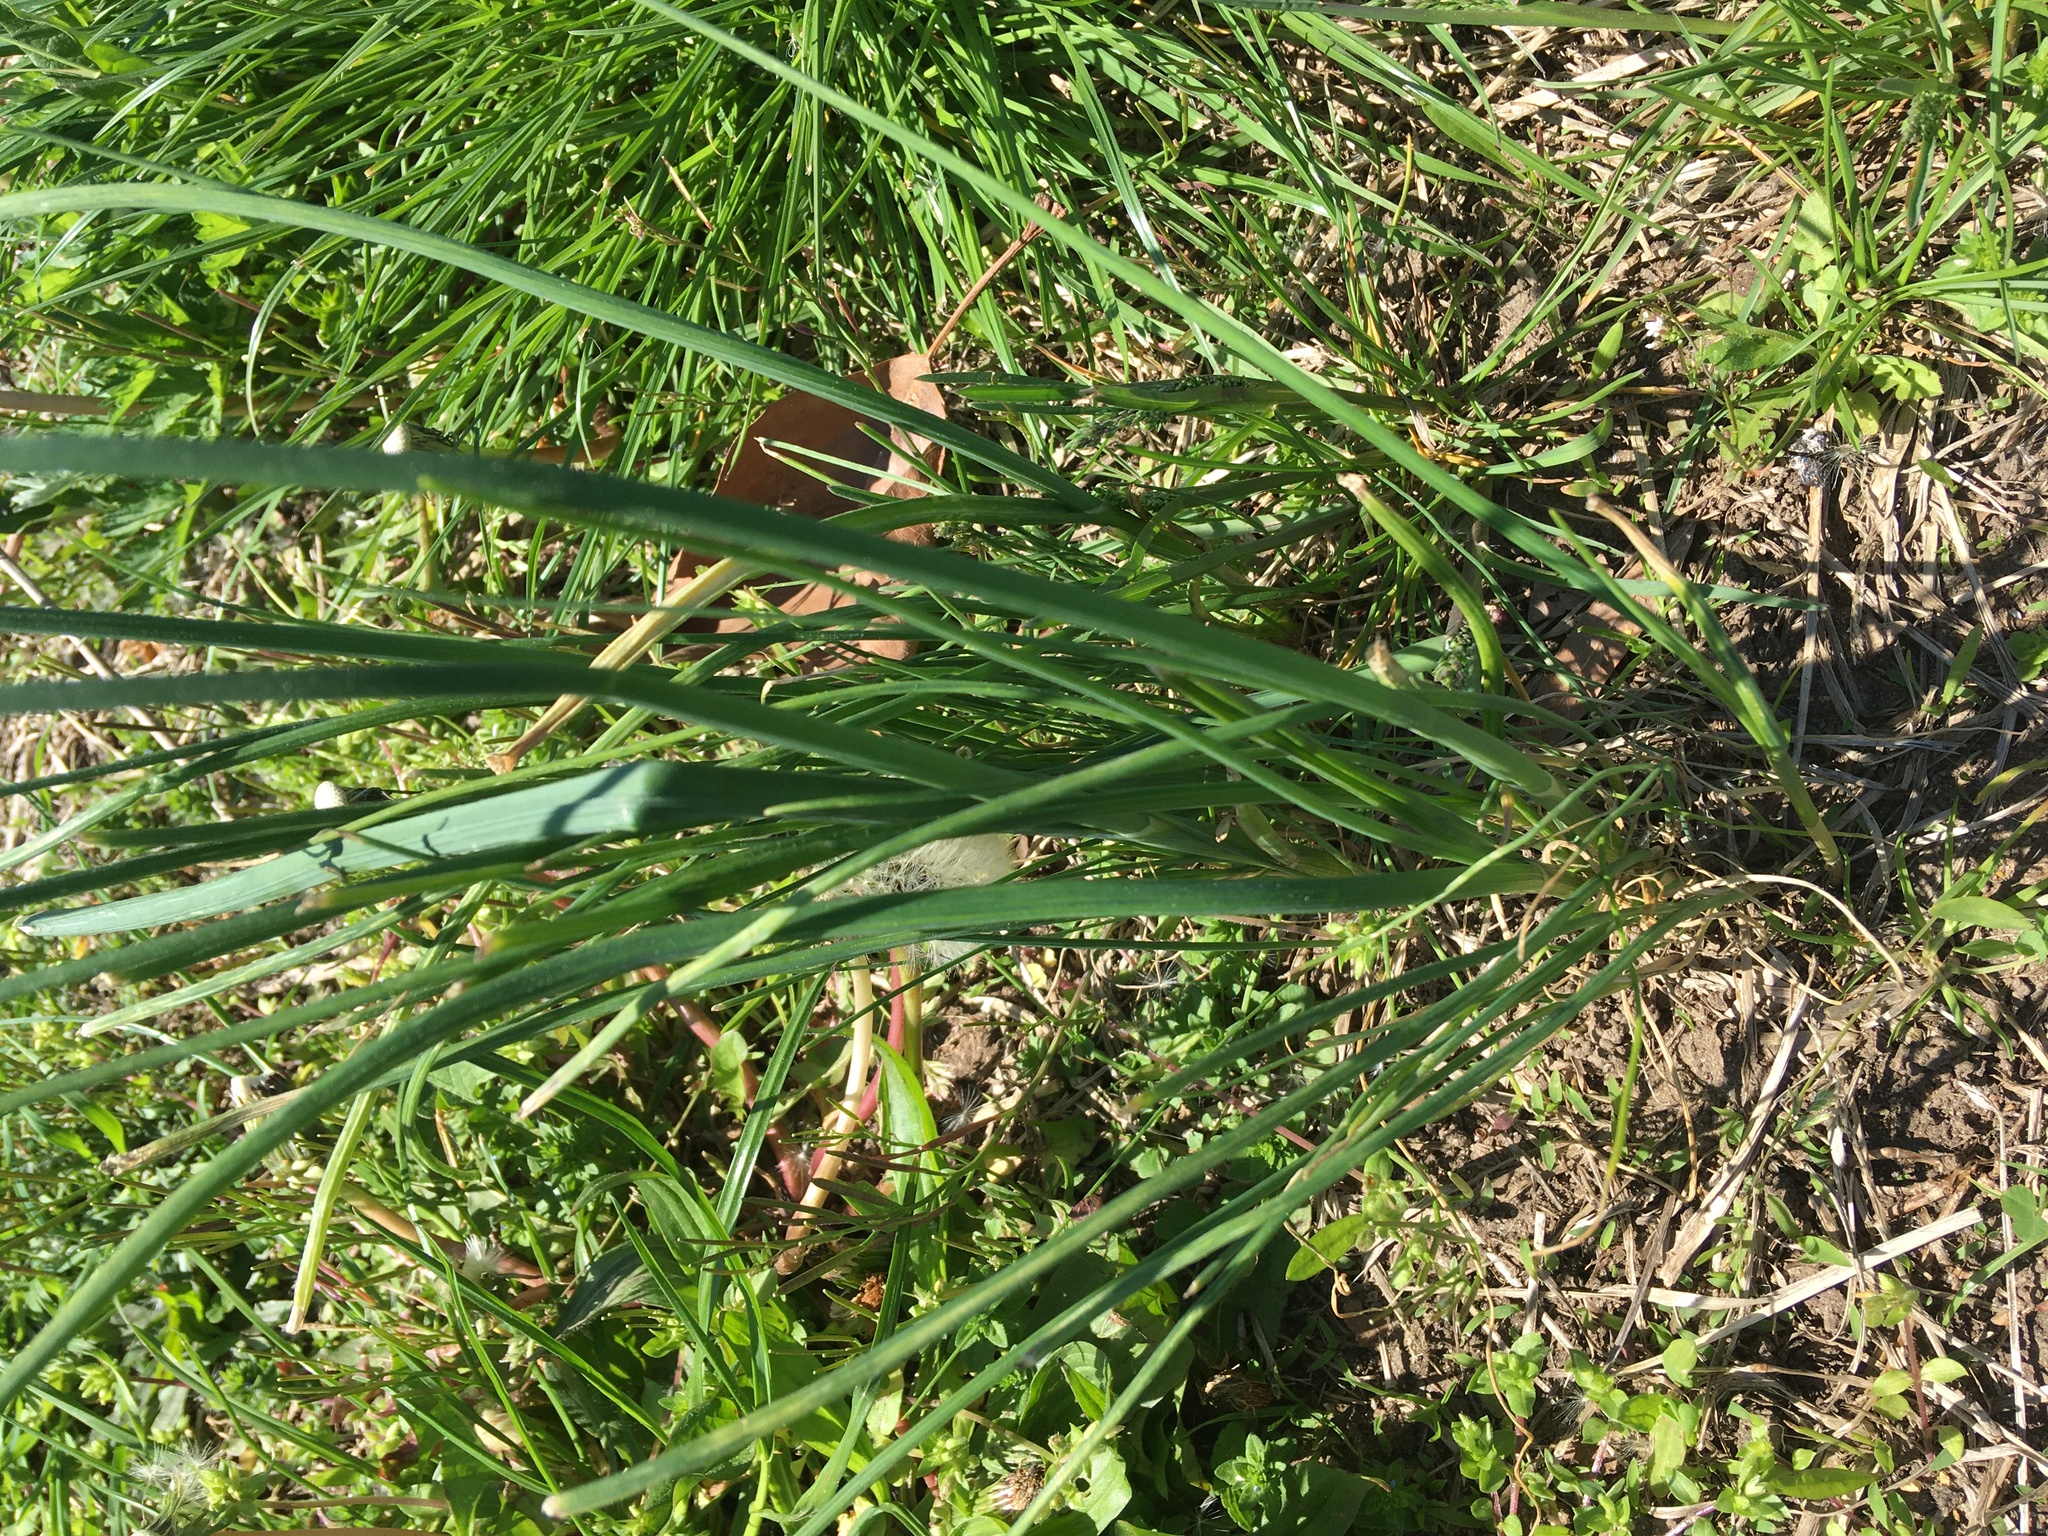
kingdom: Plantae
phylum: Tracheophyta
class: Liliopsida
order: Asparagales
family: Amaryllidaceae
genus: Allium
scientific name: Allium canadense
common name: Meadow garlic
